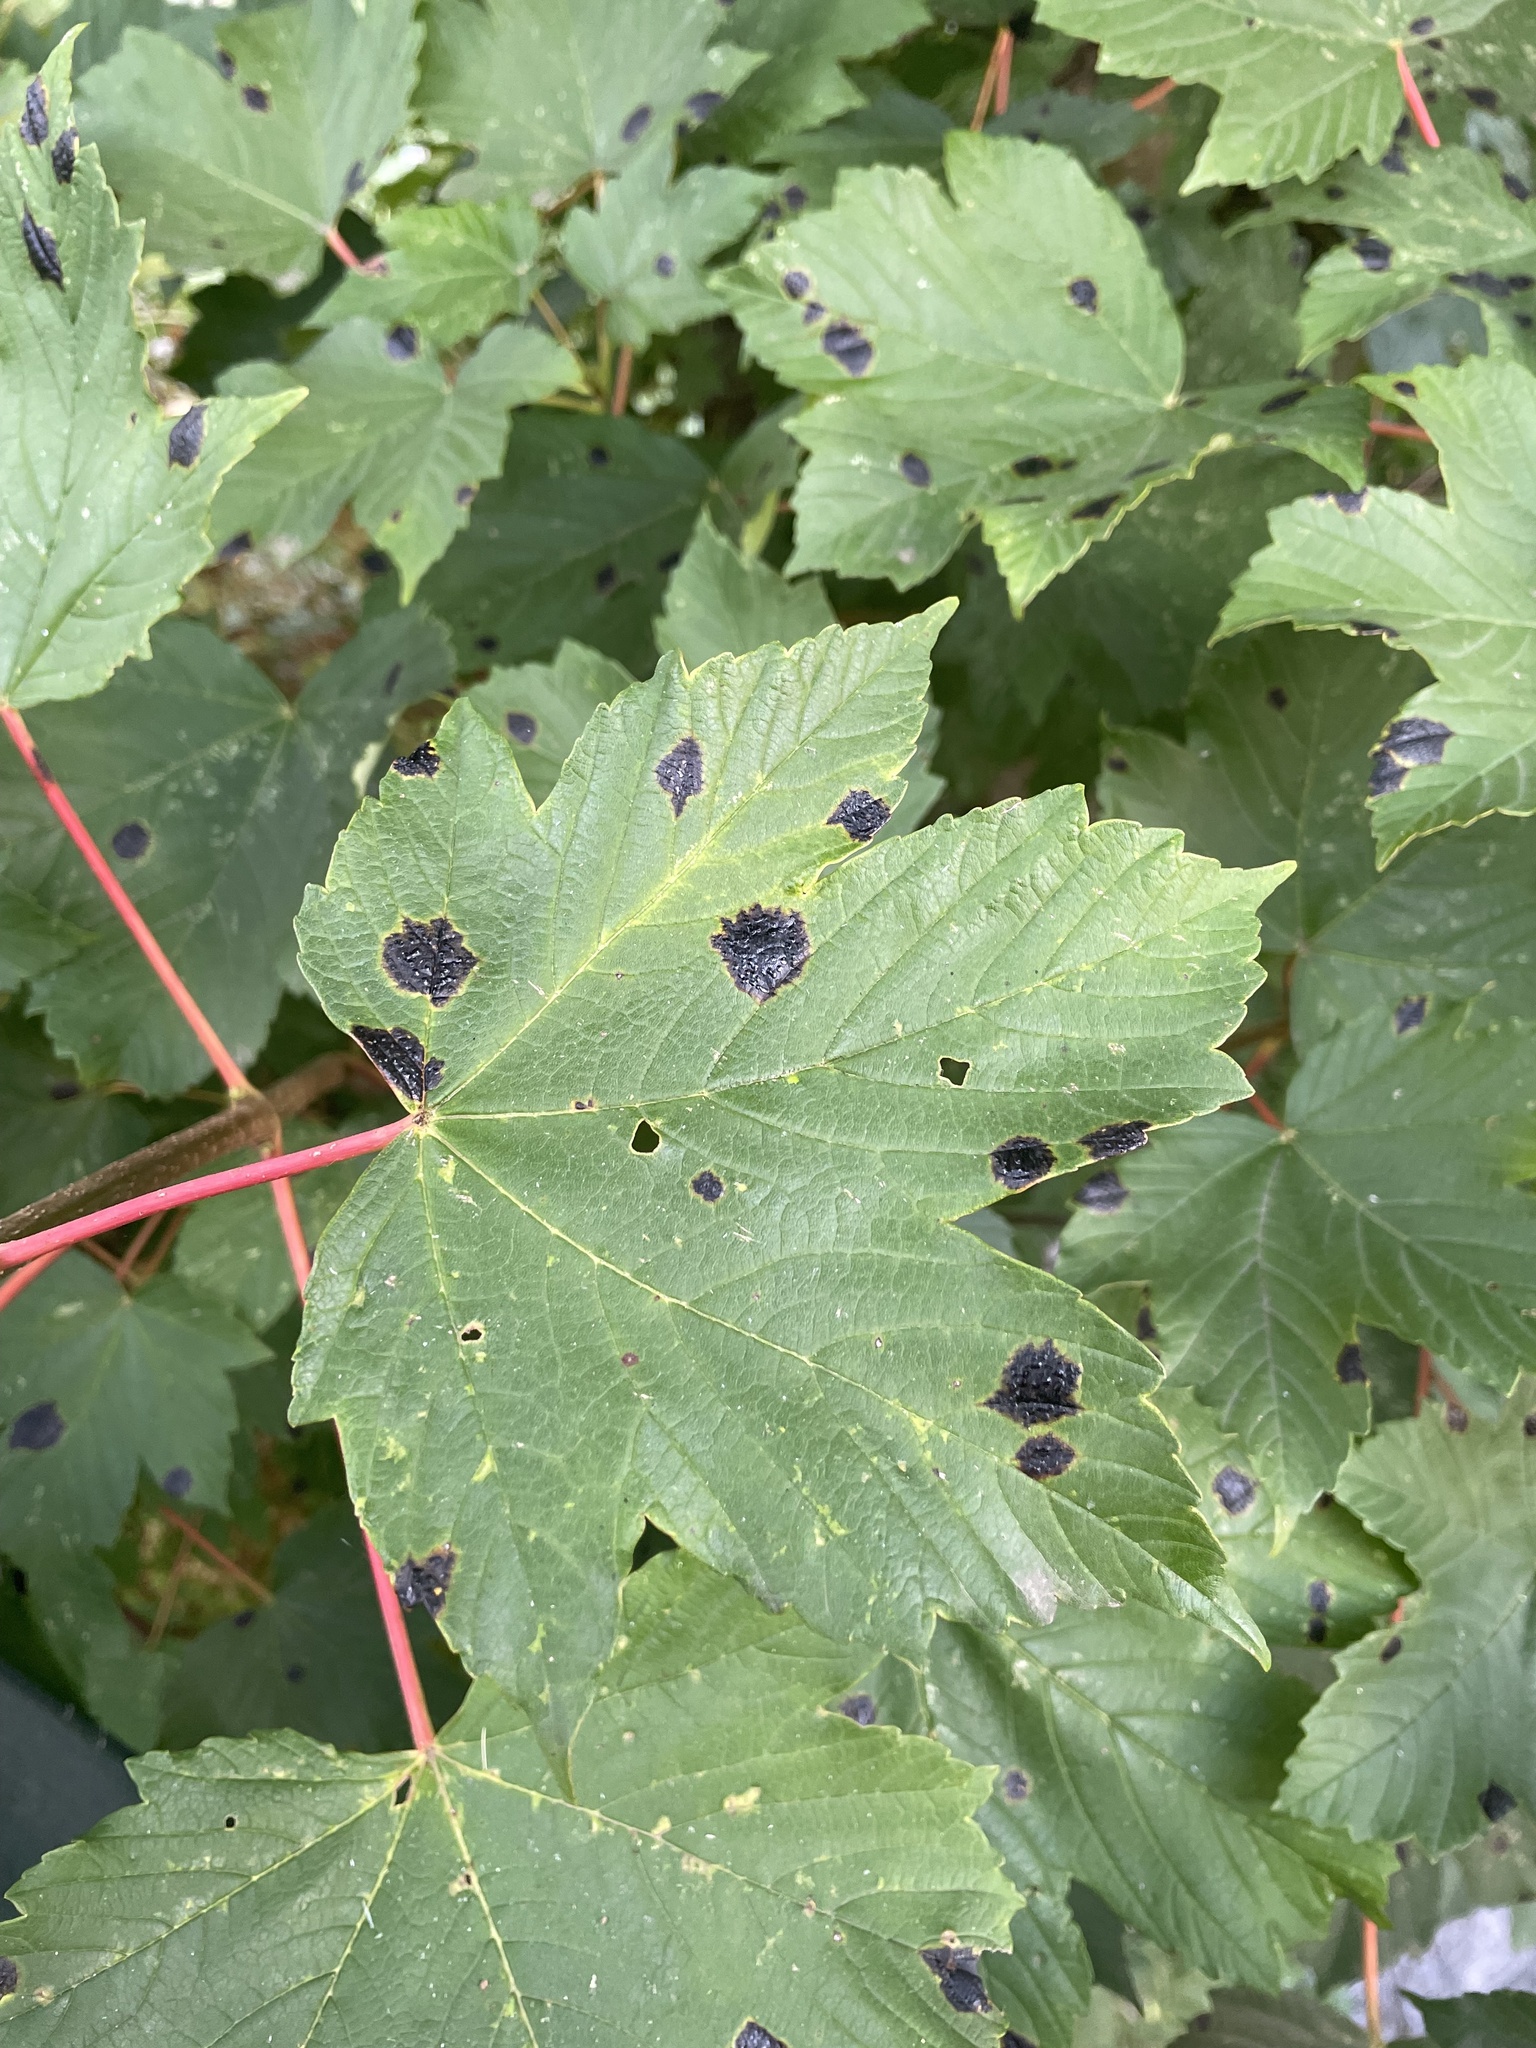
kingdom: Fungi
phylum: Ascomycota
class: Leotiomycetes
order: Rhytismatales
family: Rhytismataceae
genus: Rhytisma
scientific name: Rhytisma acerinum
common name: European tar spot
